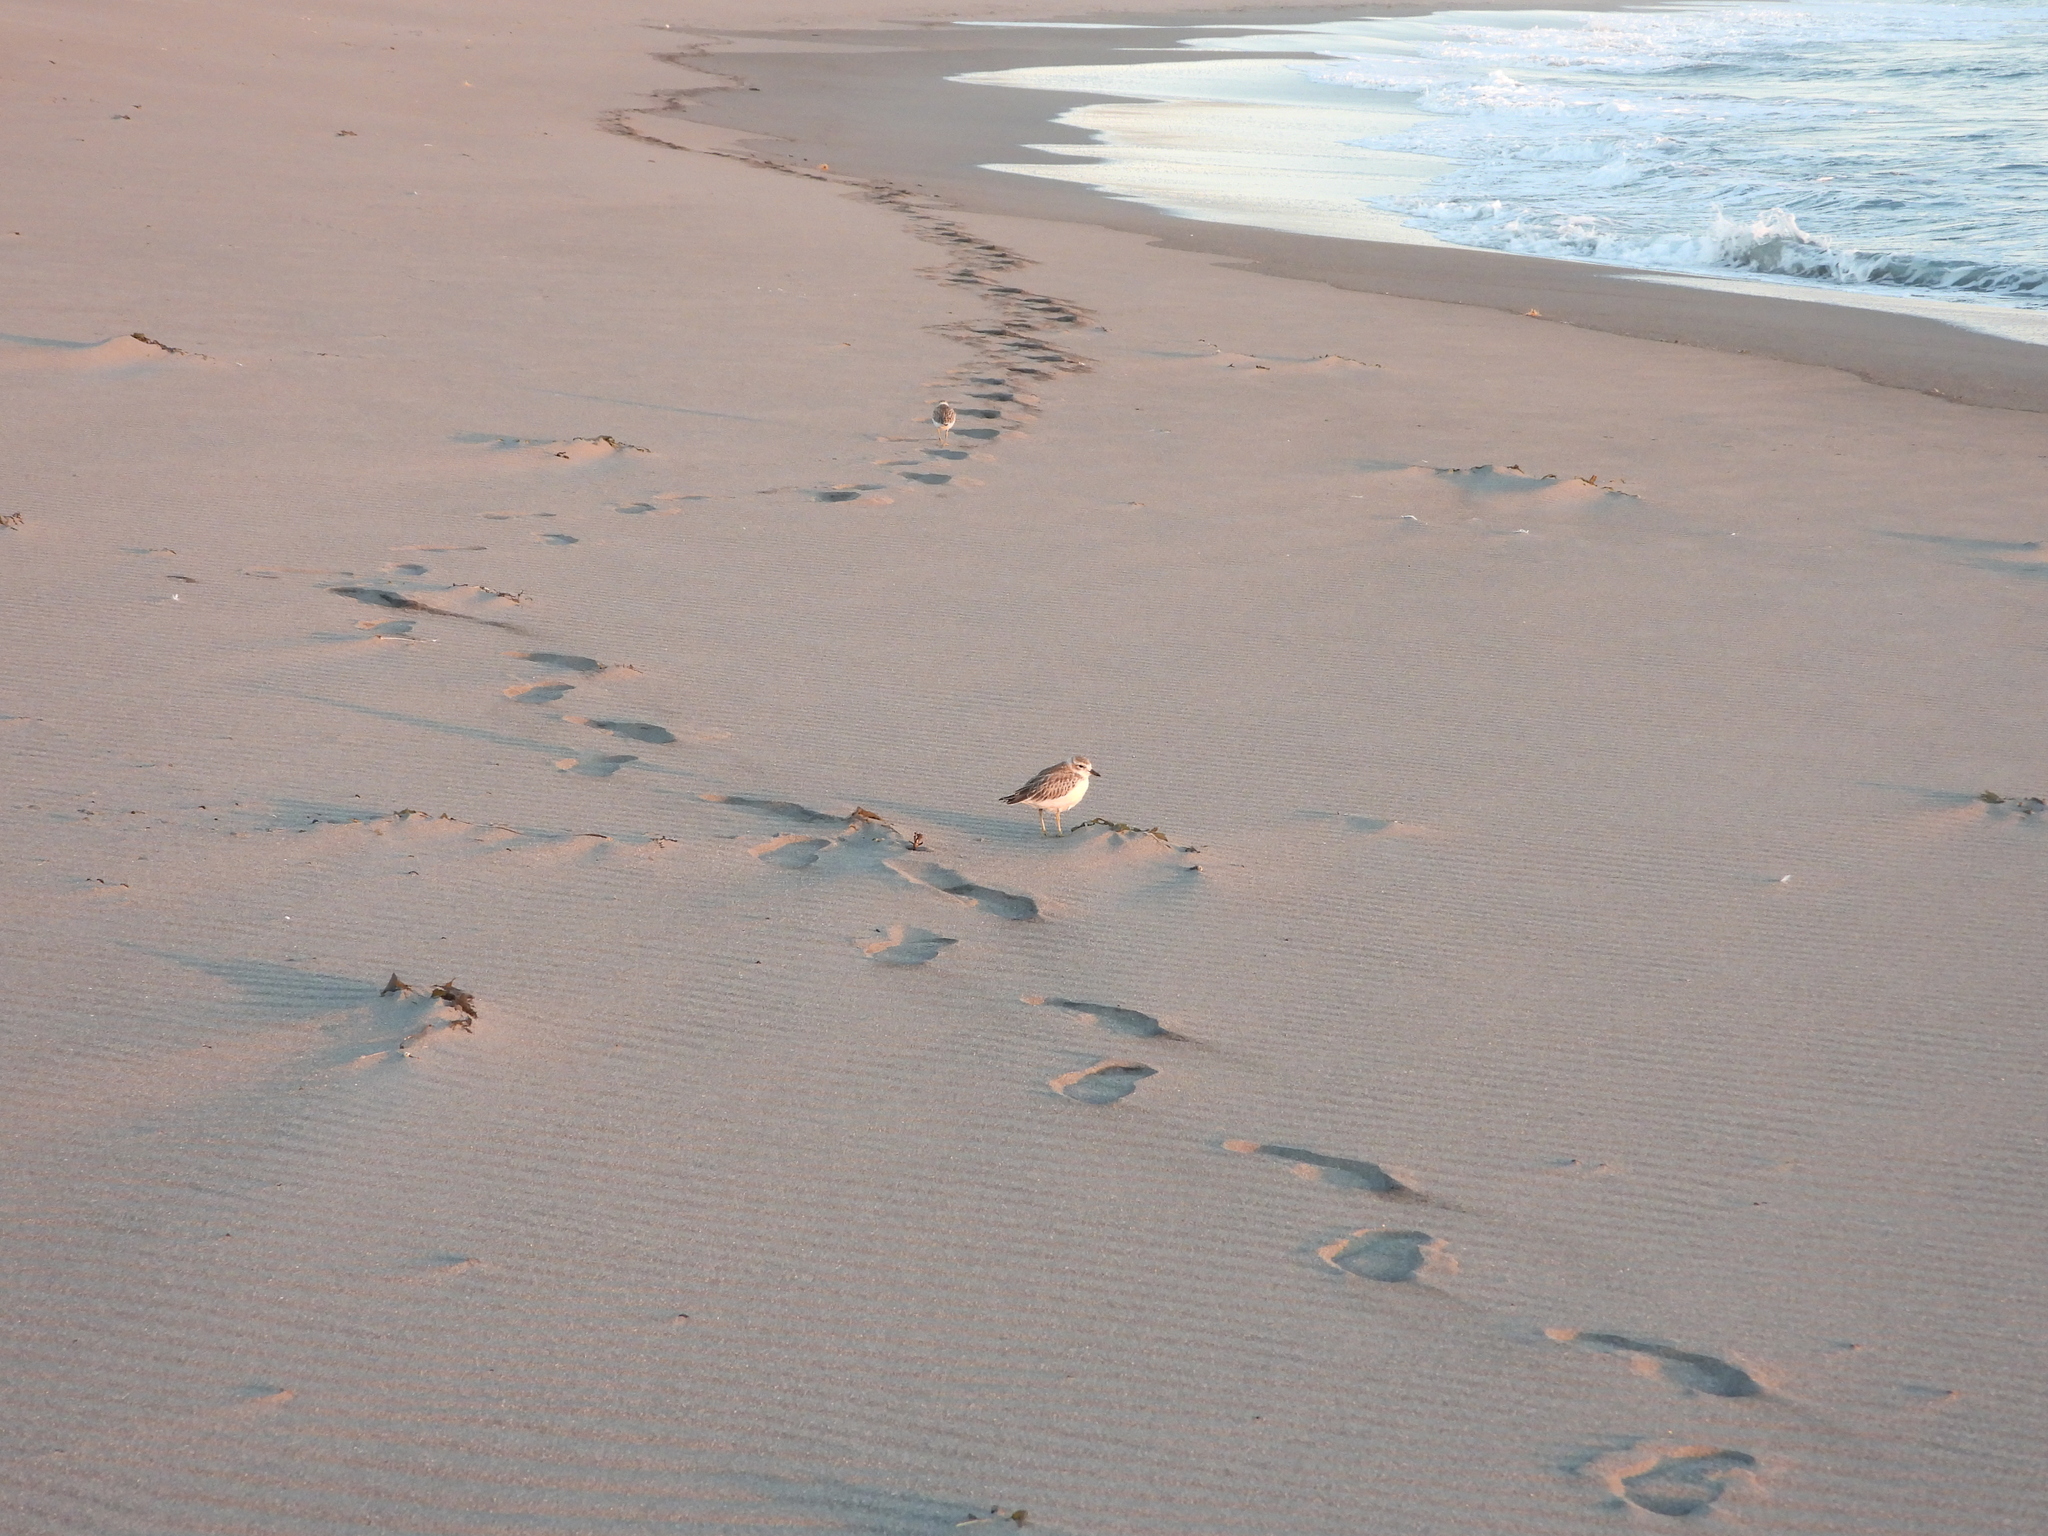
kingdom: Animalia
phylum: Chordata
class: Aves
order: Charadriiformes
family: Charadriidae
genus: Anarhynchus
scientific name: Anarhynchus
